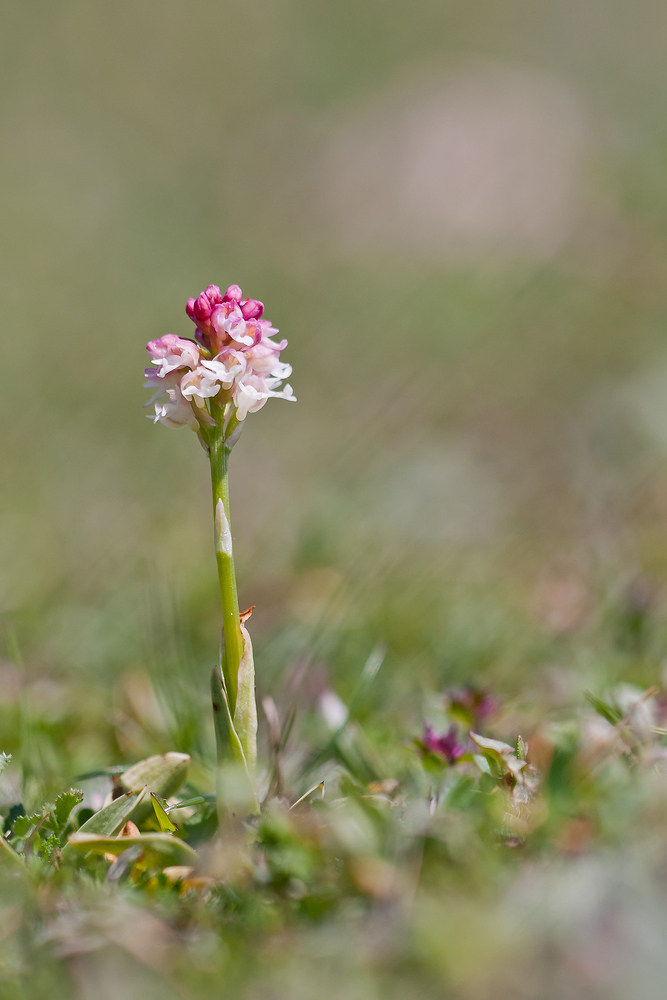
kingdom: Plantae
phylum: Tracheophyta
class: Liliopsida
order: Asparagales
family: Orchidaceae
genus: Neotinea
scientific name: Neotinea ustulata
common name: Burnt orchid
